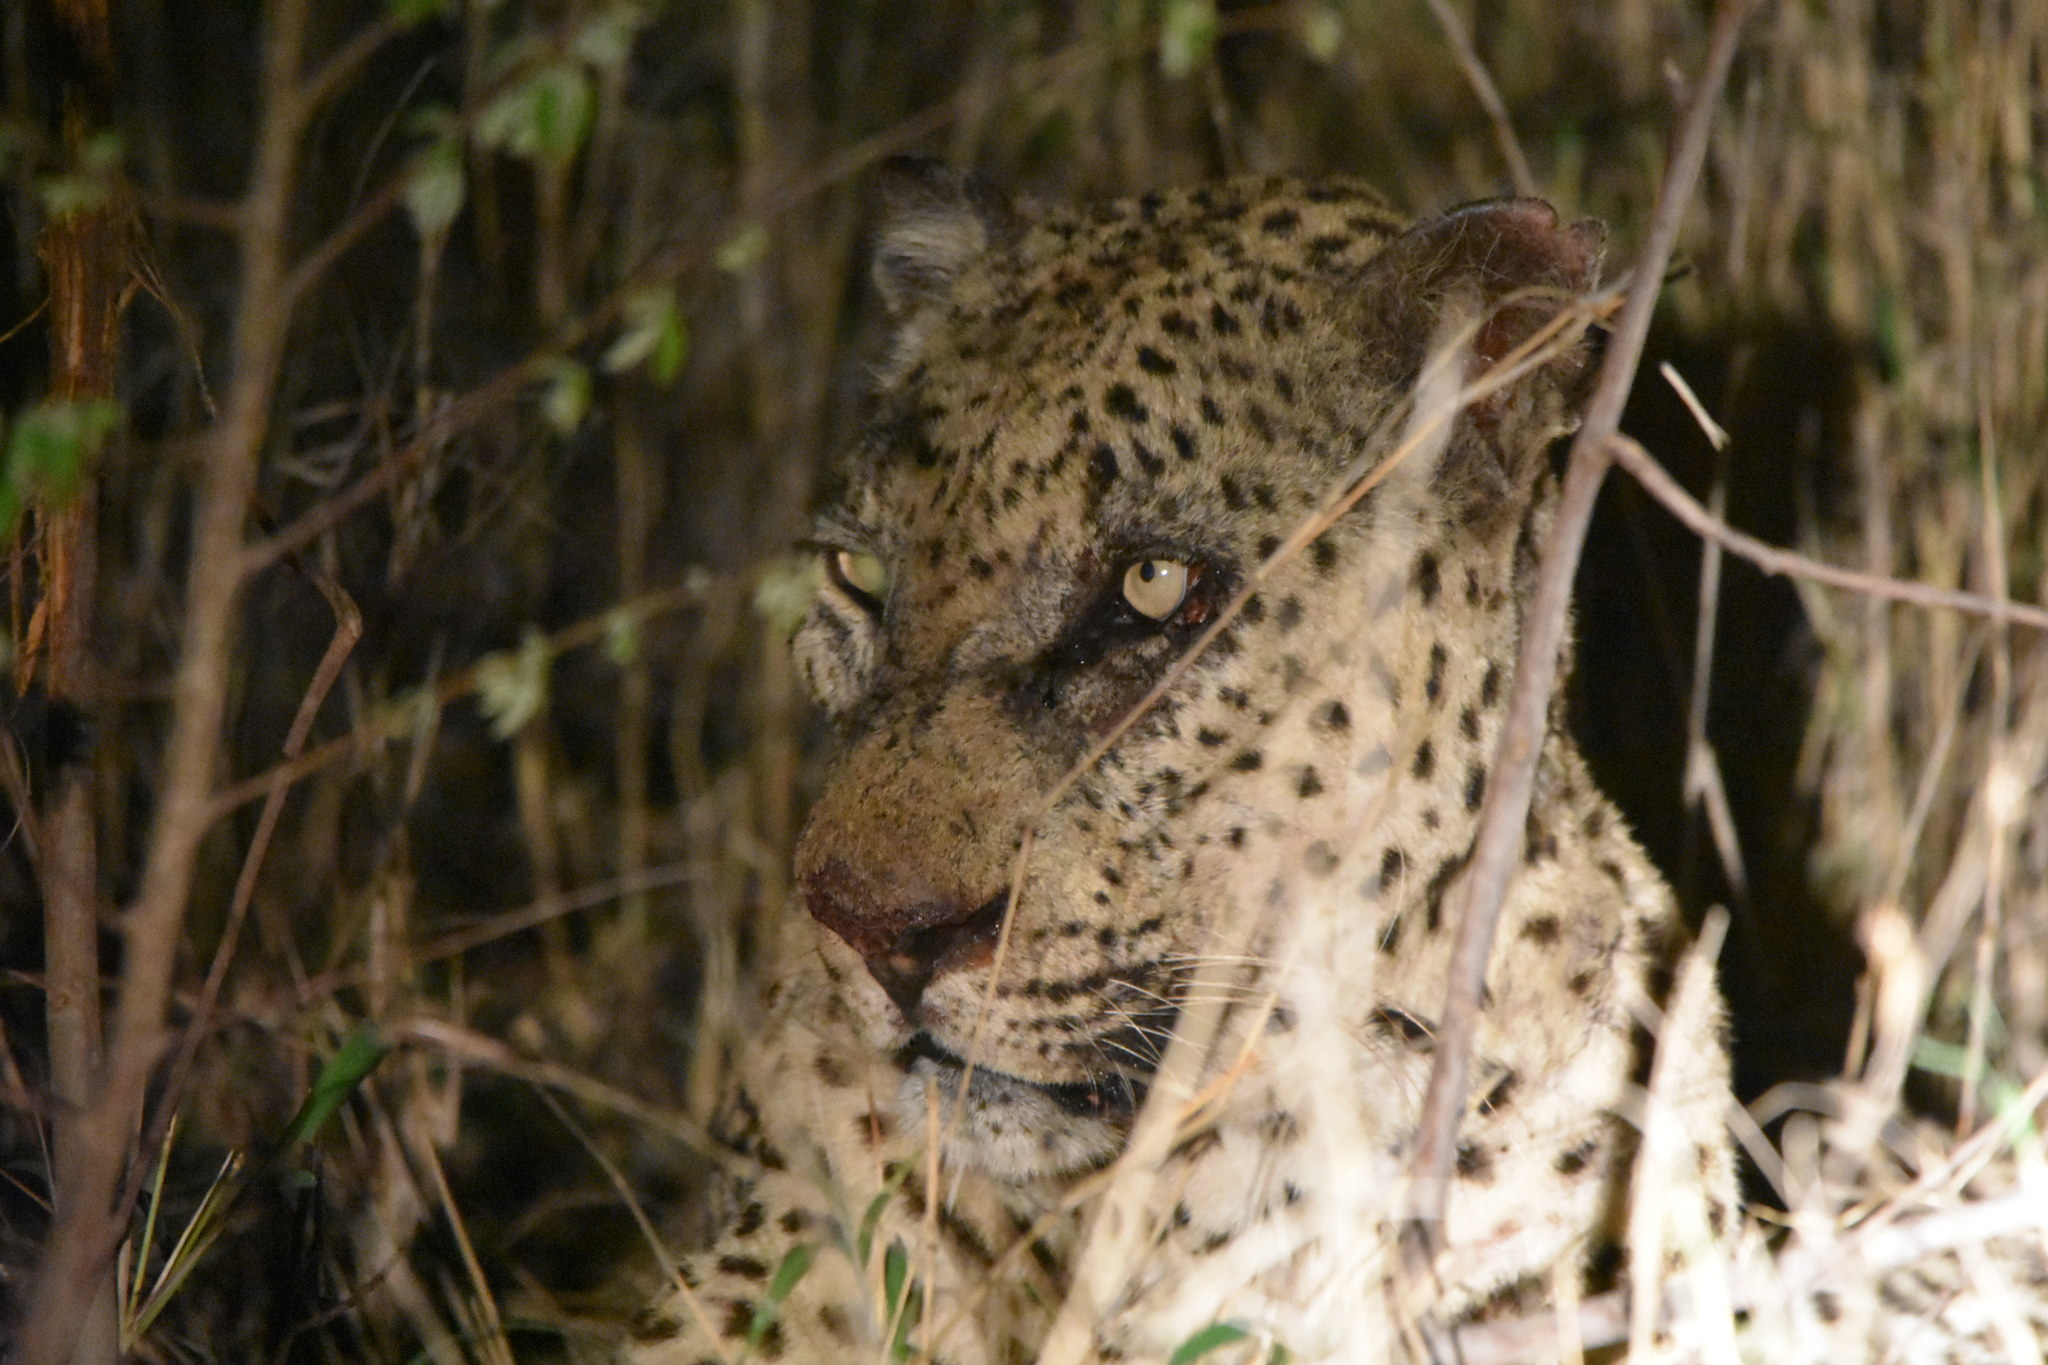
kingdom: Animalia
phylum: Chordata
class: Mammalia
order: Carnivora
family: Felidae
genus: Panthera
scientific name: Panthera pardus
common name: Leopard
